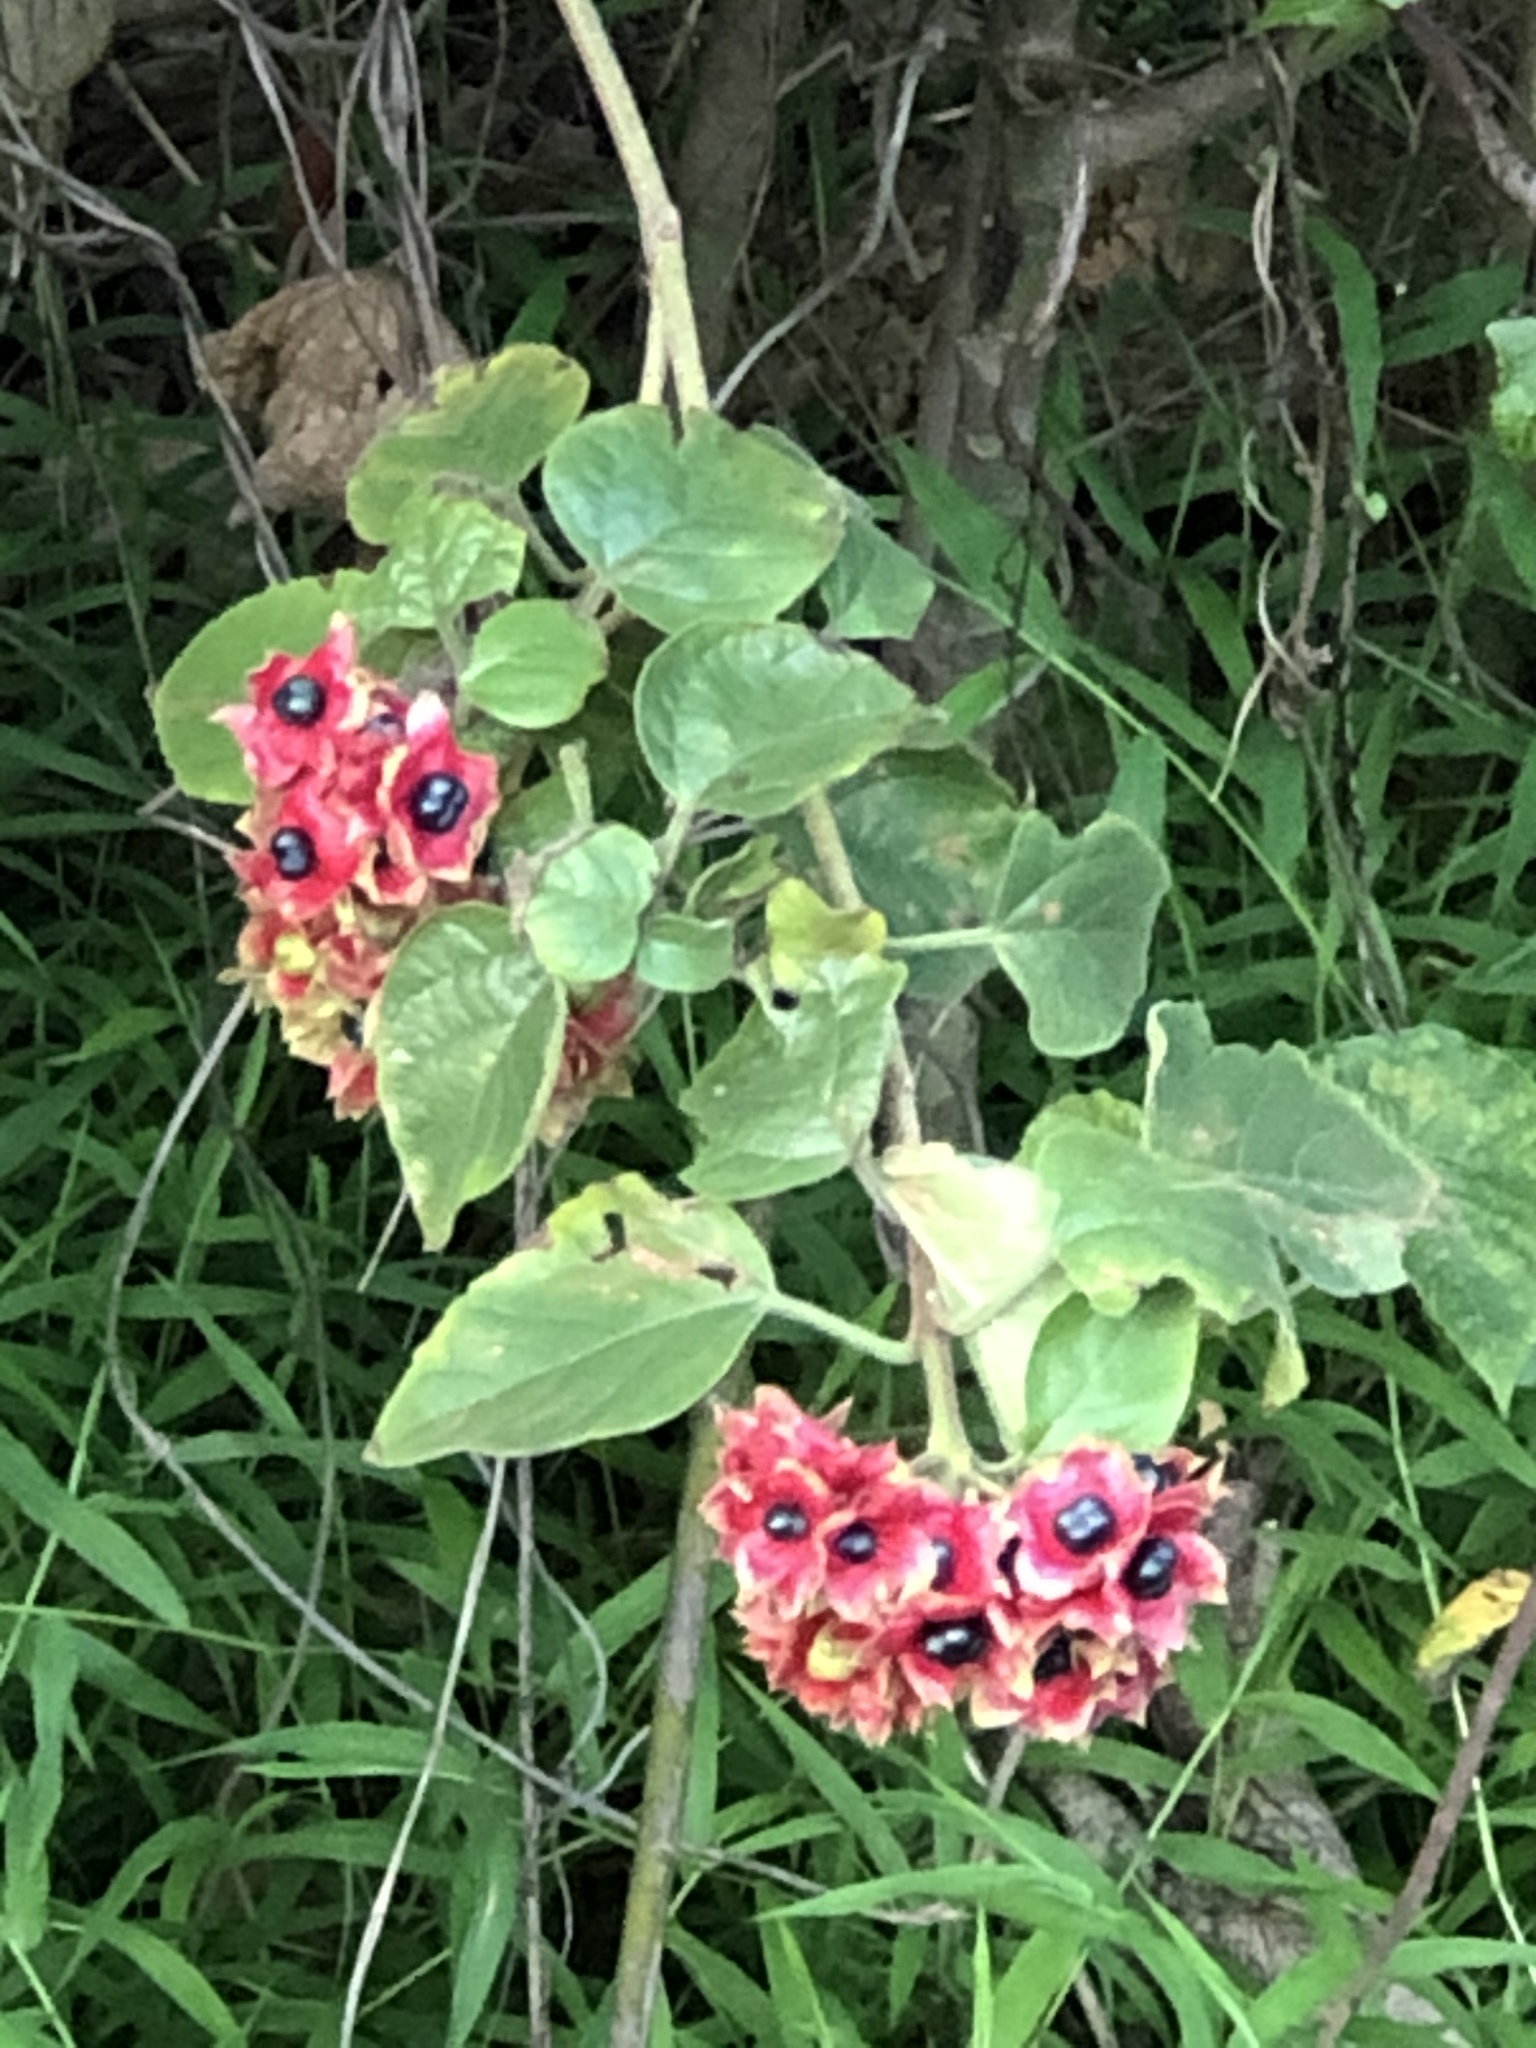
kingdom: Plantae
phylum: Tracheophyta
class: Magnoliopsida
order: Lamiales
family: Lamiaceae
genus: Clerodendrum
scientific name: Clerodendrum canescens
